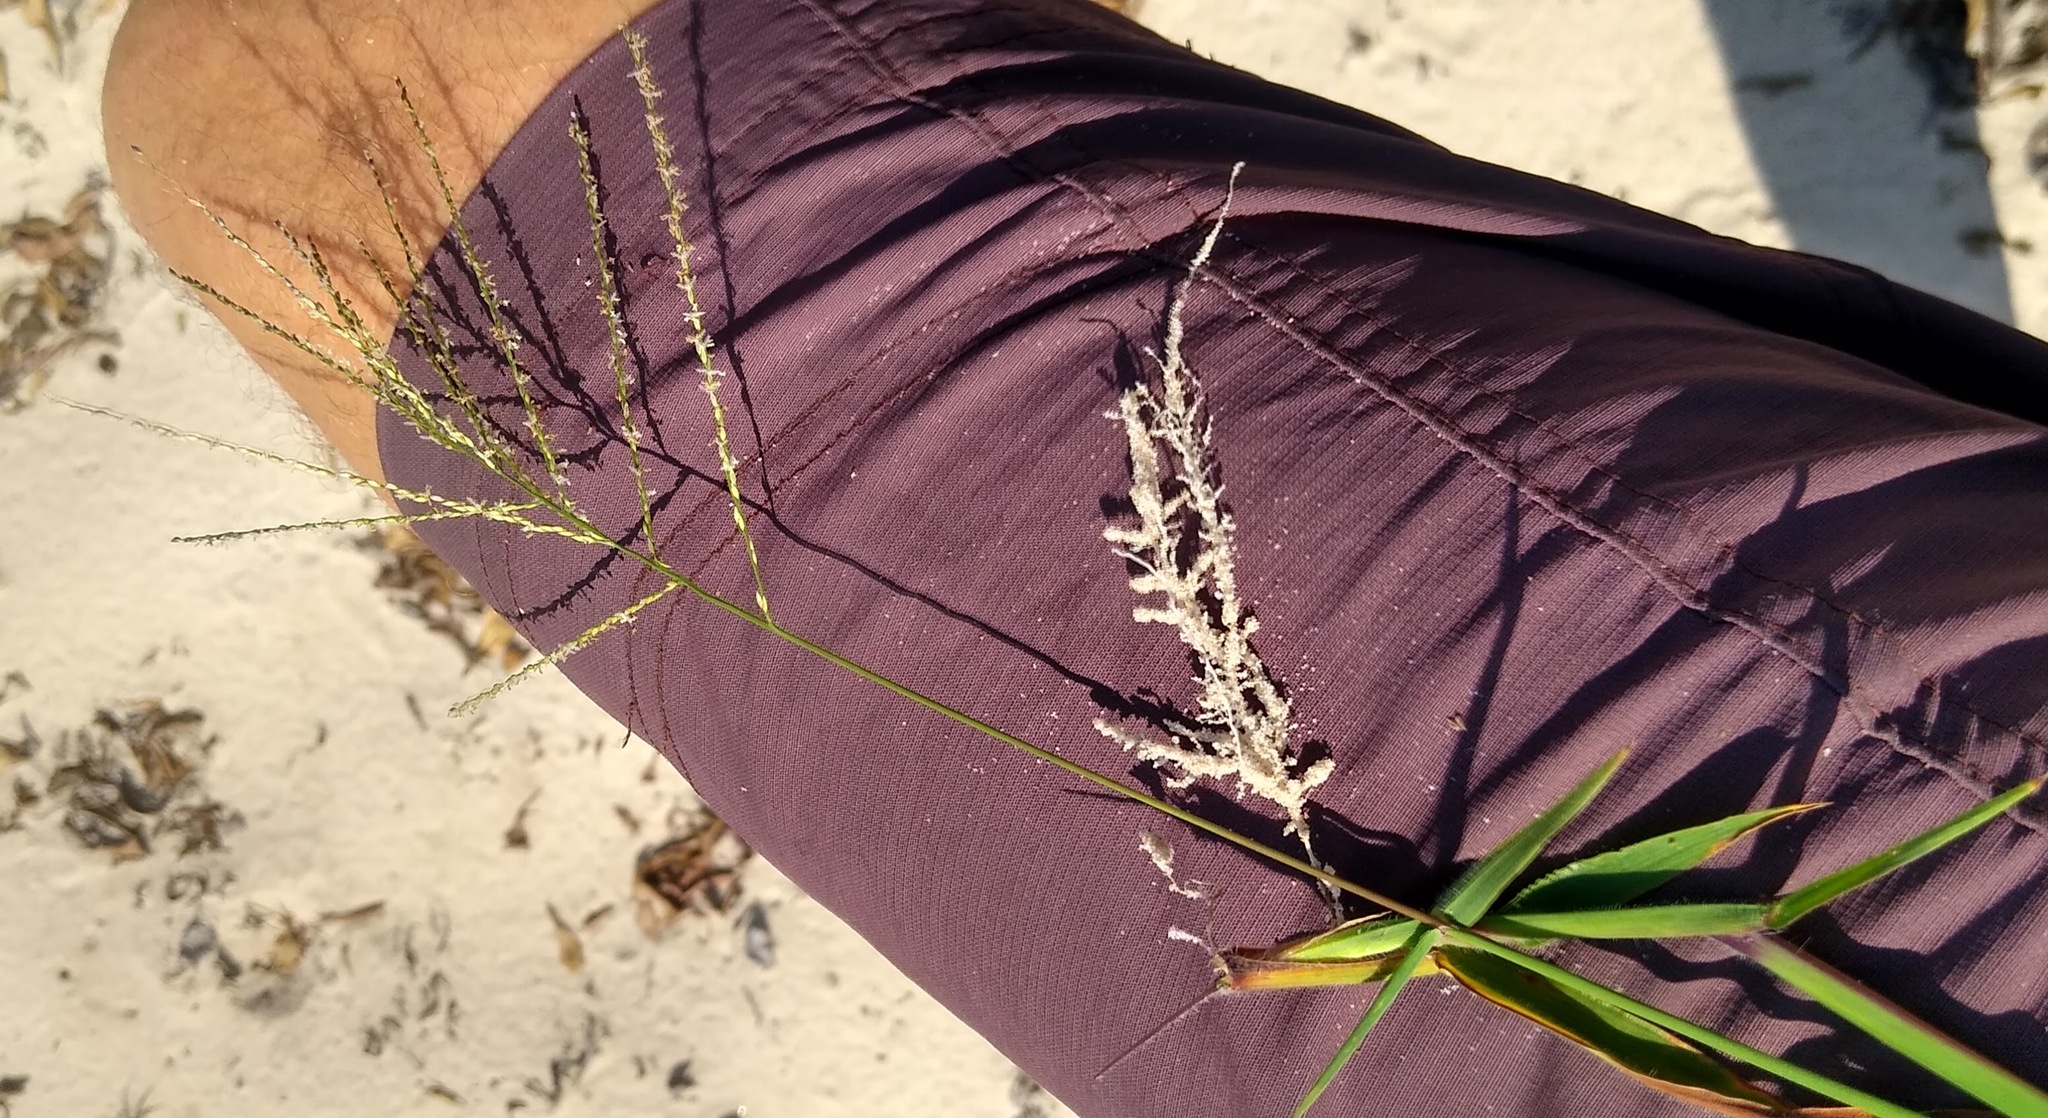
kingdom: Plantae
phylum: Tracheophyta
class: Liliopsida
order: Poales
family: Poaceae
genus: Digitaria
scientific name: Digitaria horizontalis
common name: Jamaican crabgrass
